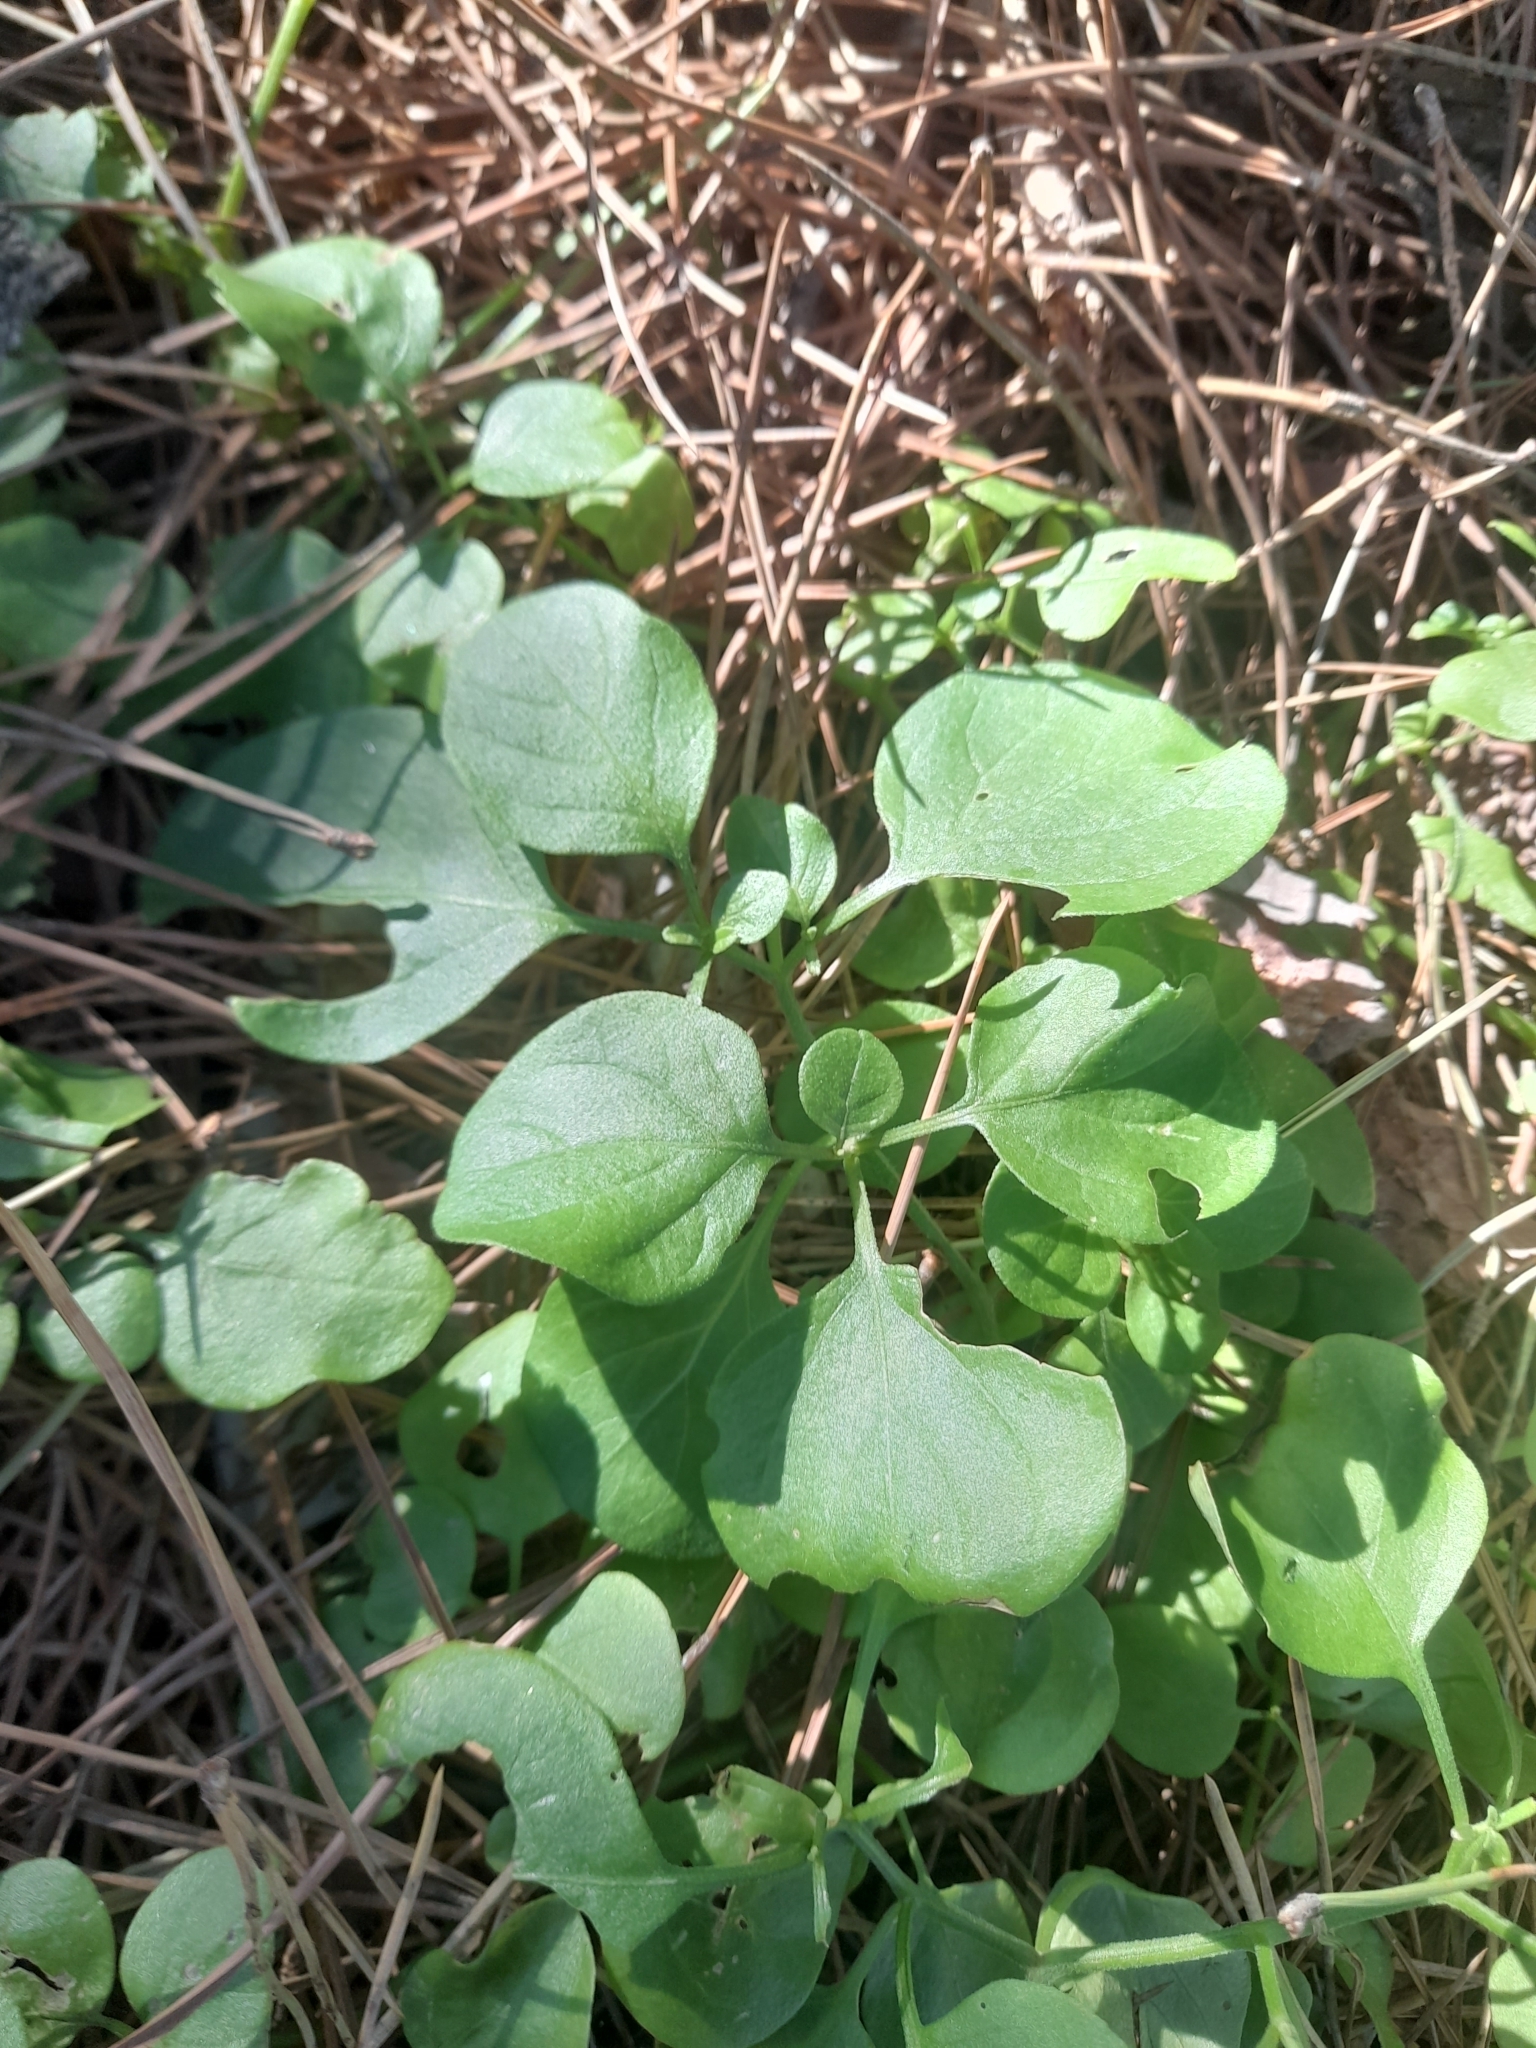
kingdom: Plantae
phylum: Tracheophyta
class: Magnoliopsida
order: Solanales
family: Solanaceae
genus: Salpichroa
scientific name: Salpichroa origanifolia
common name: Lily-of-the-valley-vine
